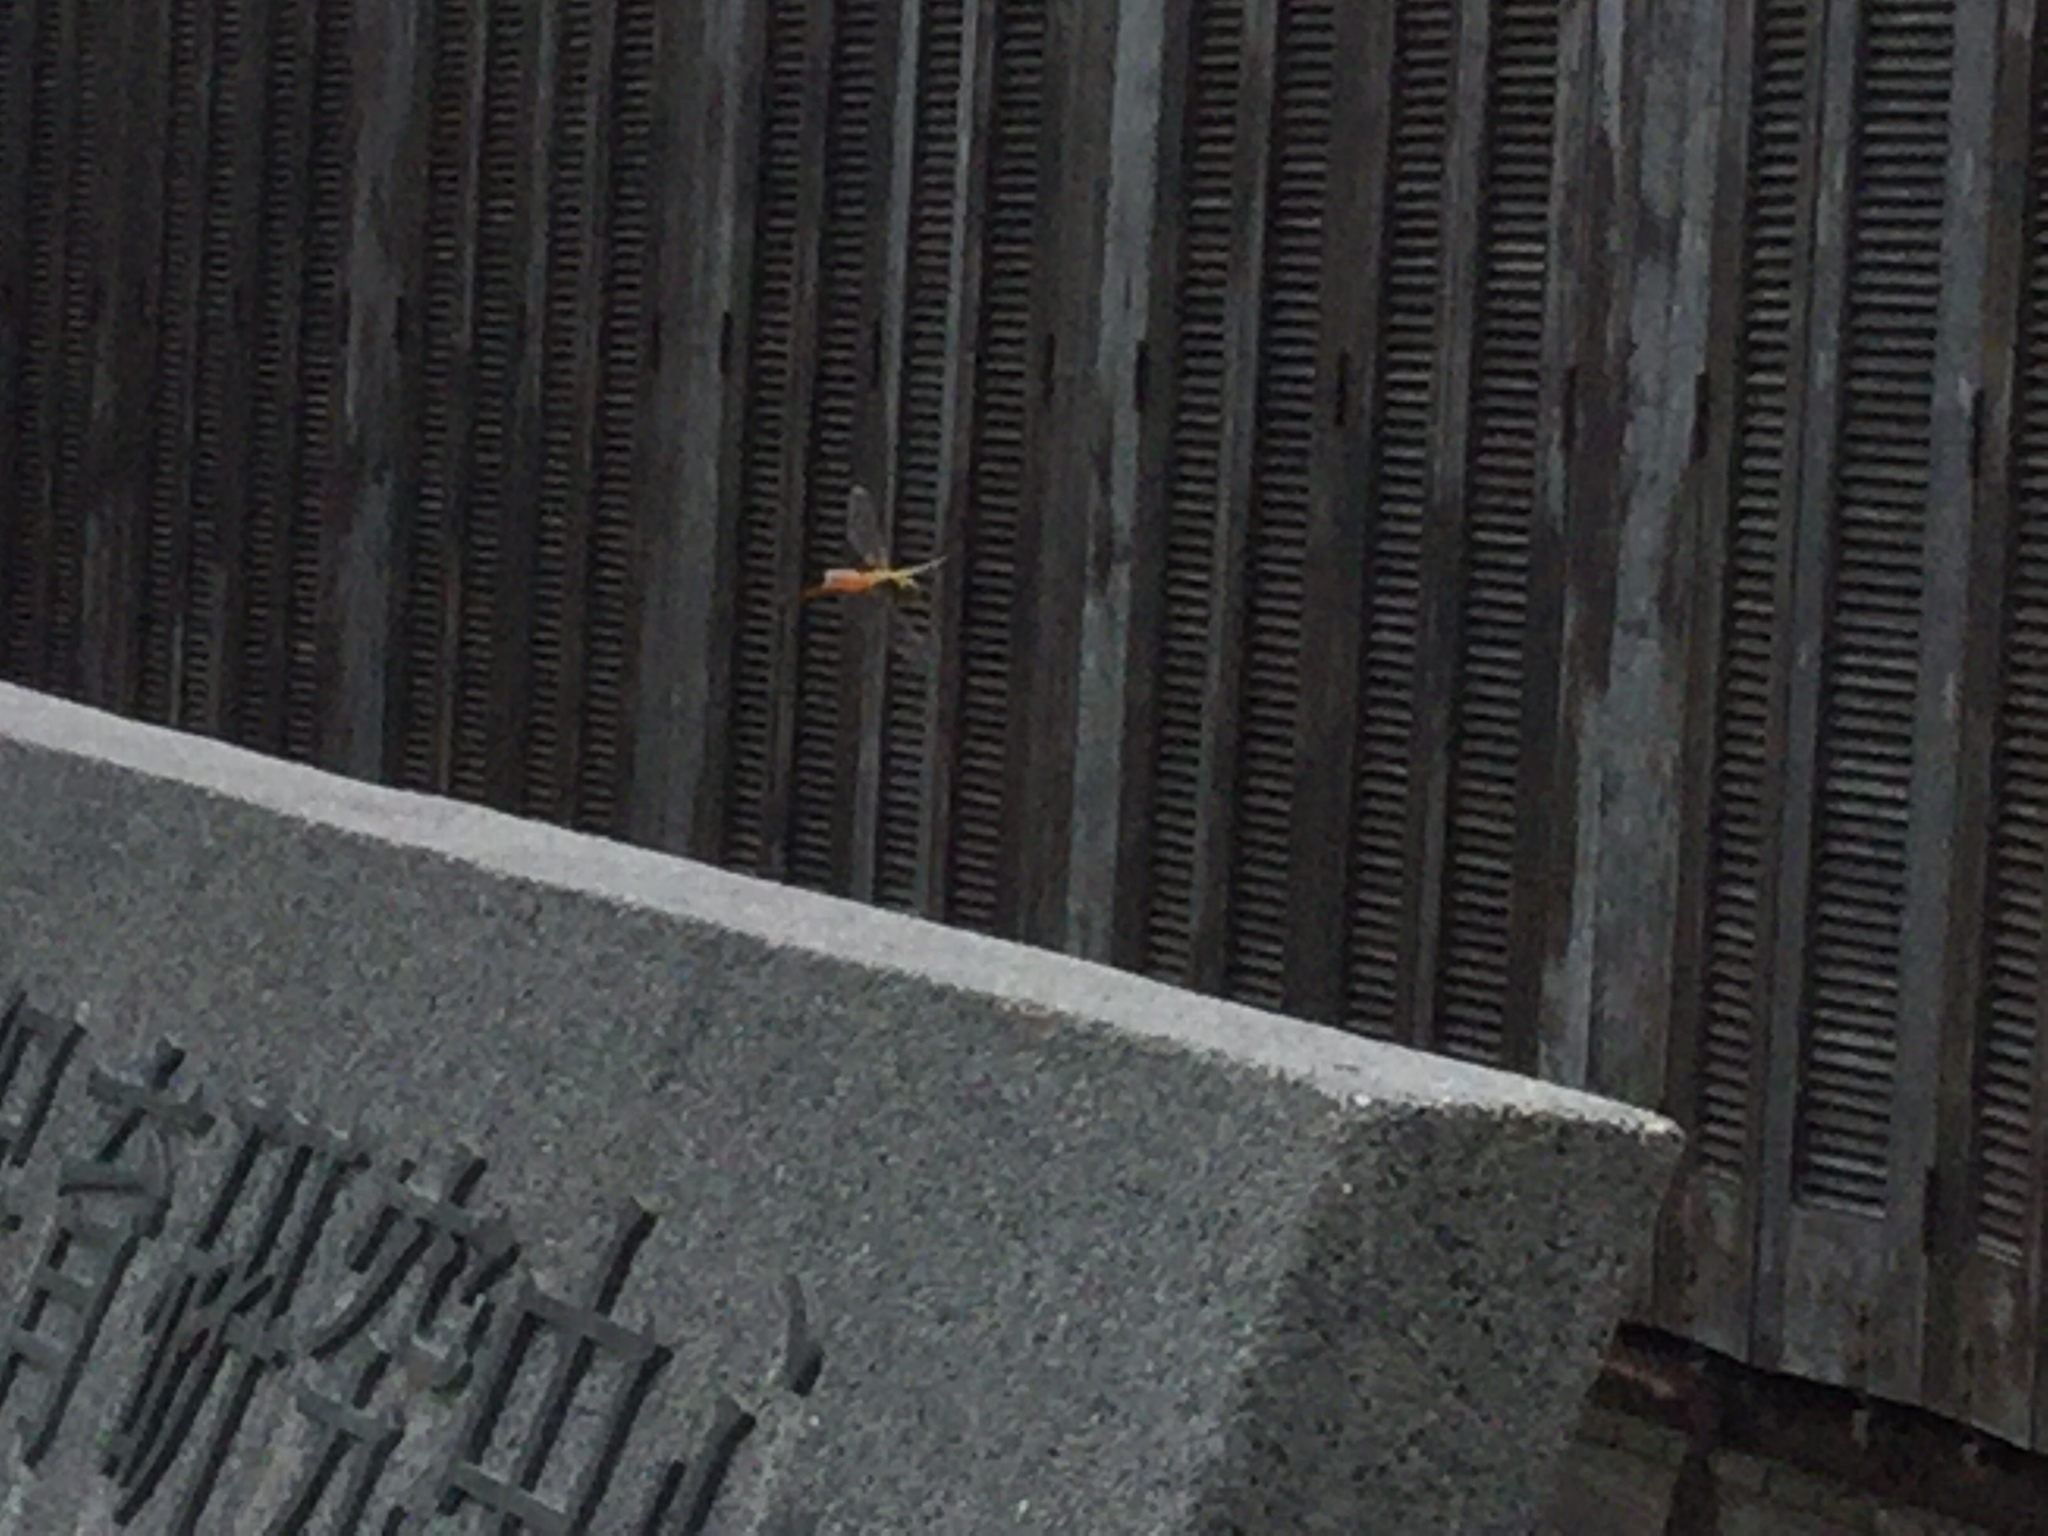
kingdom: Animalia
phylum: Arthropoda
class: Insecta
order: Odonata
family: Libellulidae
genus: Pantala
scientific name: Pantala flavescens
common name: Wandering glider
